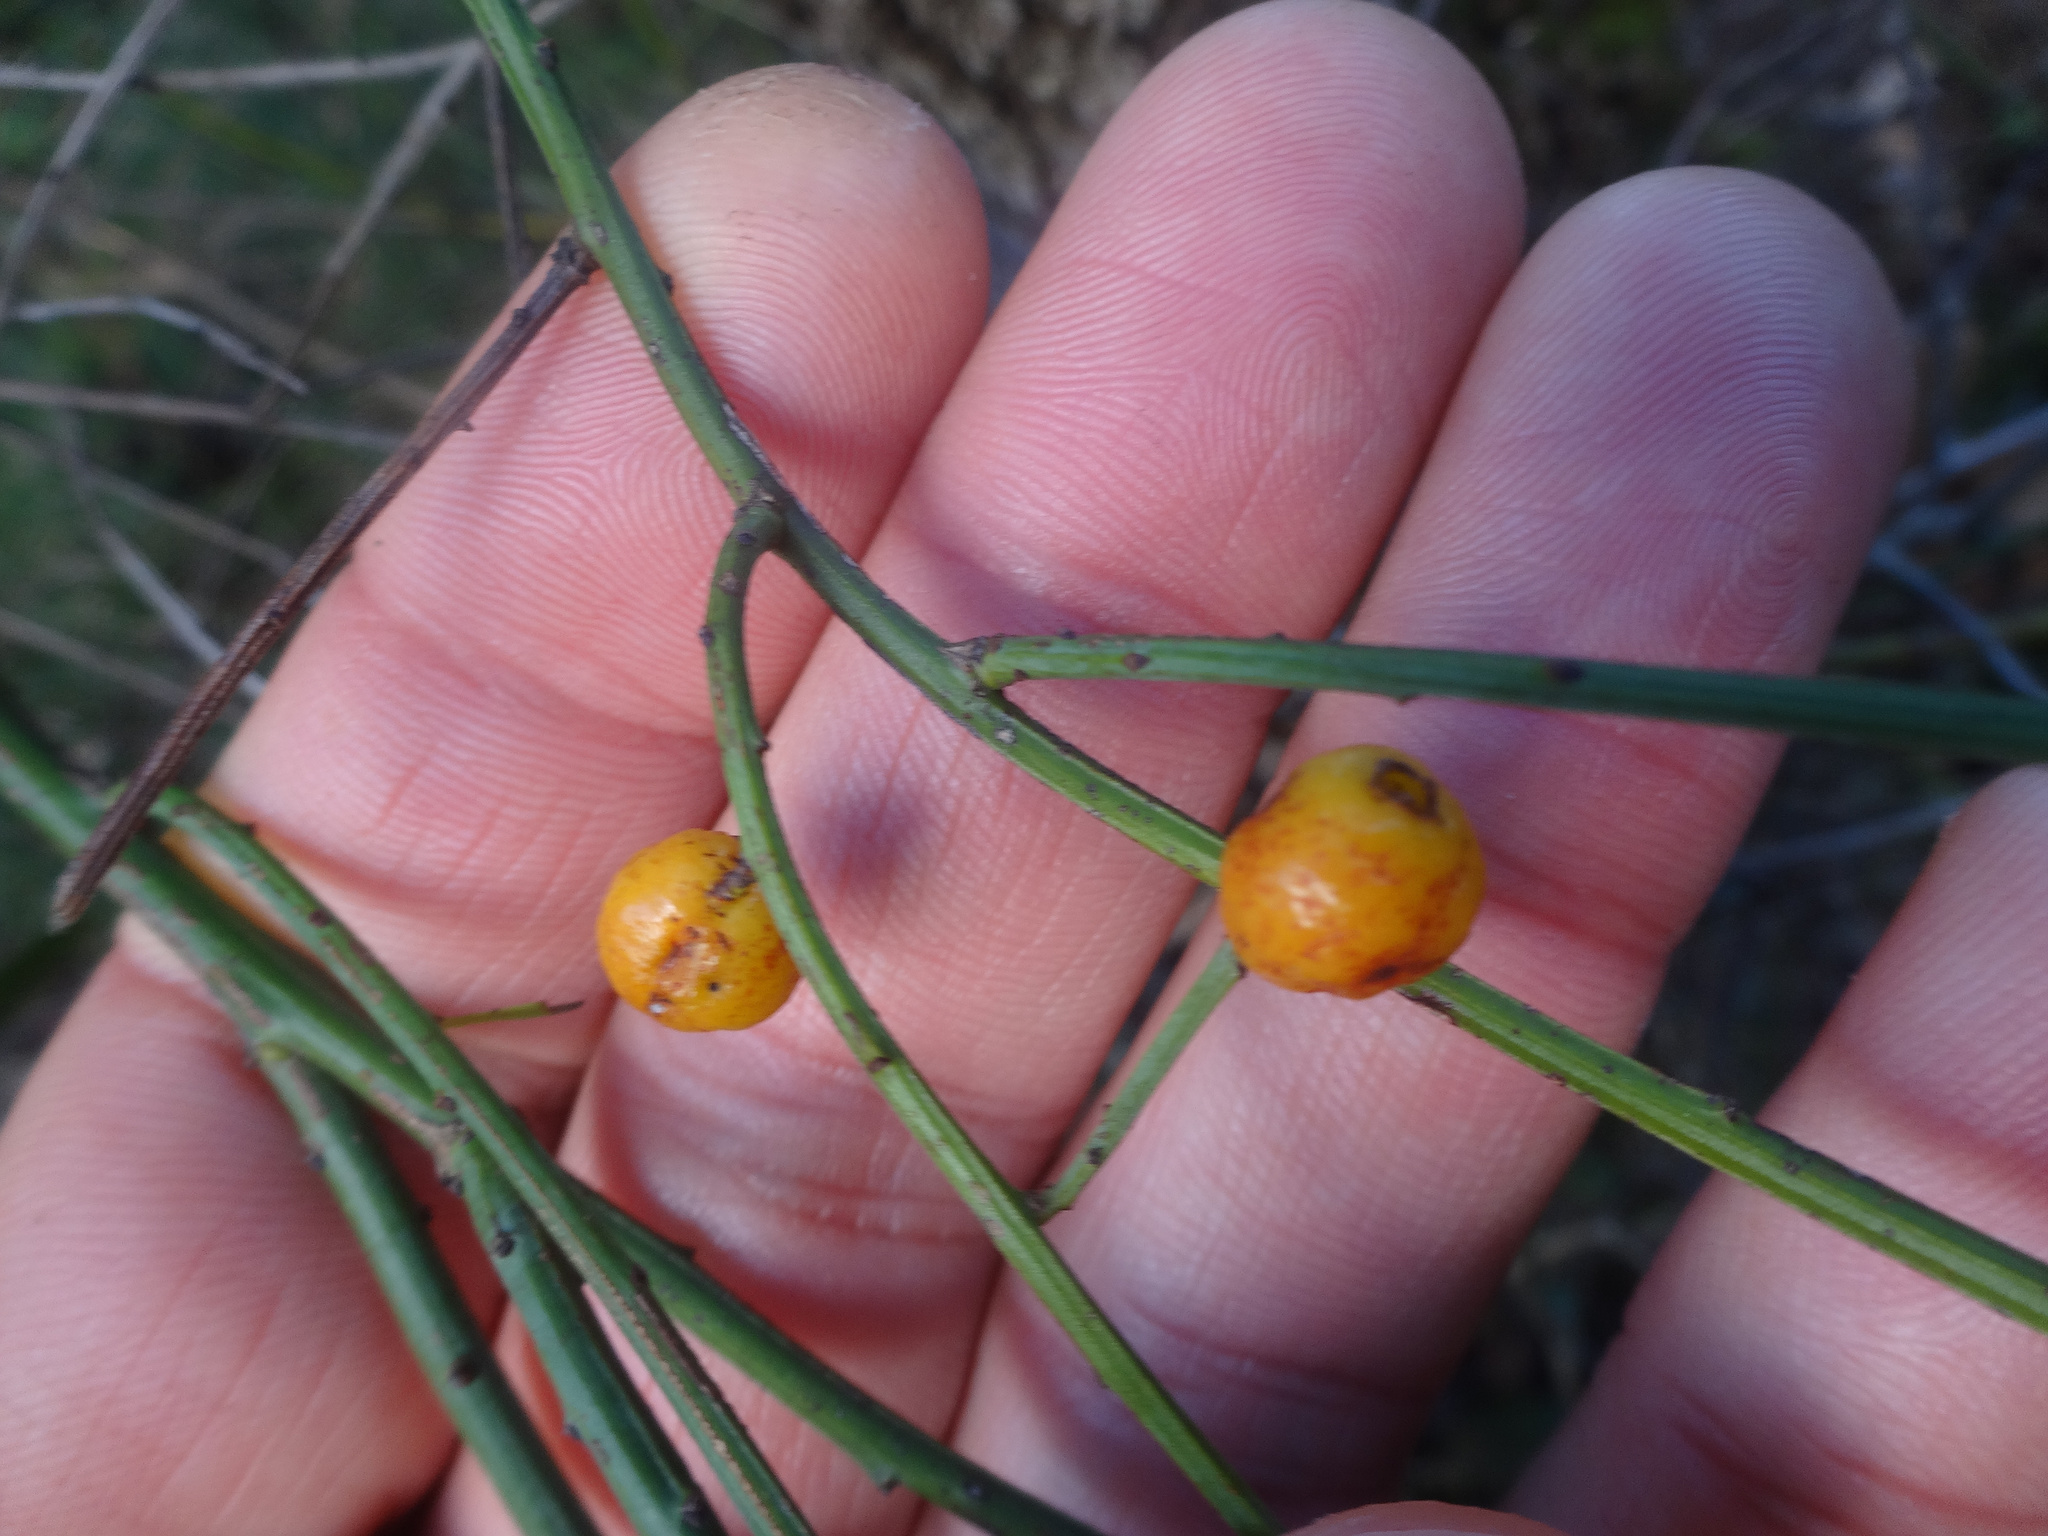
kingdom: Plantae
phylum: Tracheophyta
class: Magnoliopsida
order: Santalales
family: Santalaceae
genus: Osyris
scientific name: Osyris alba
